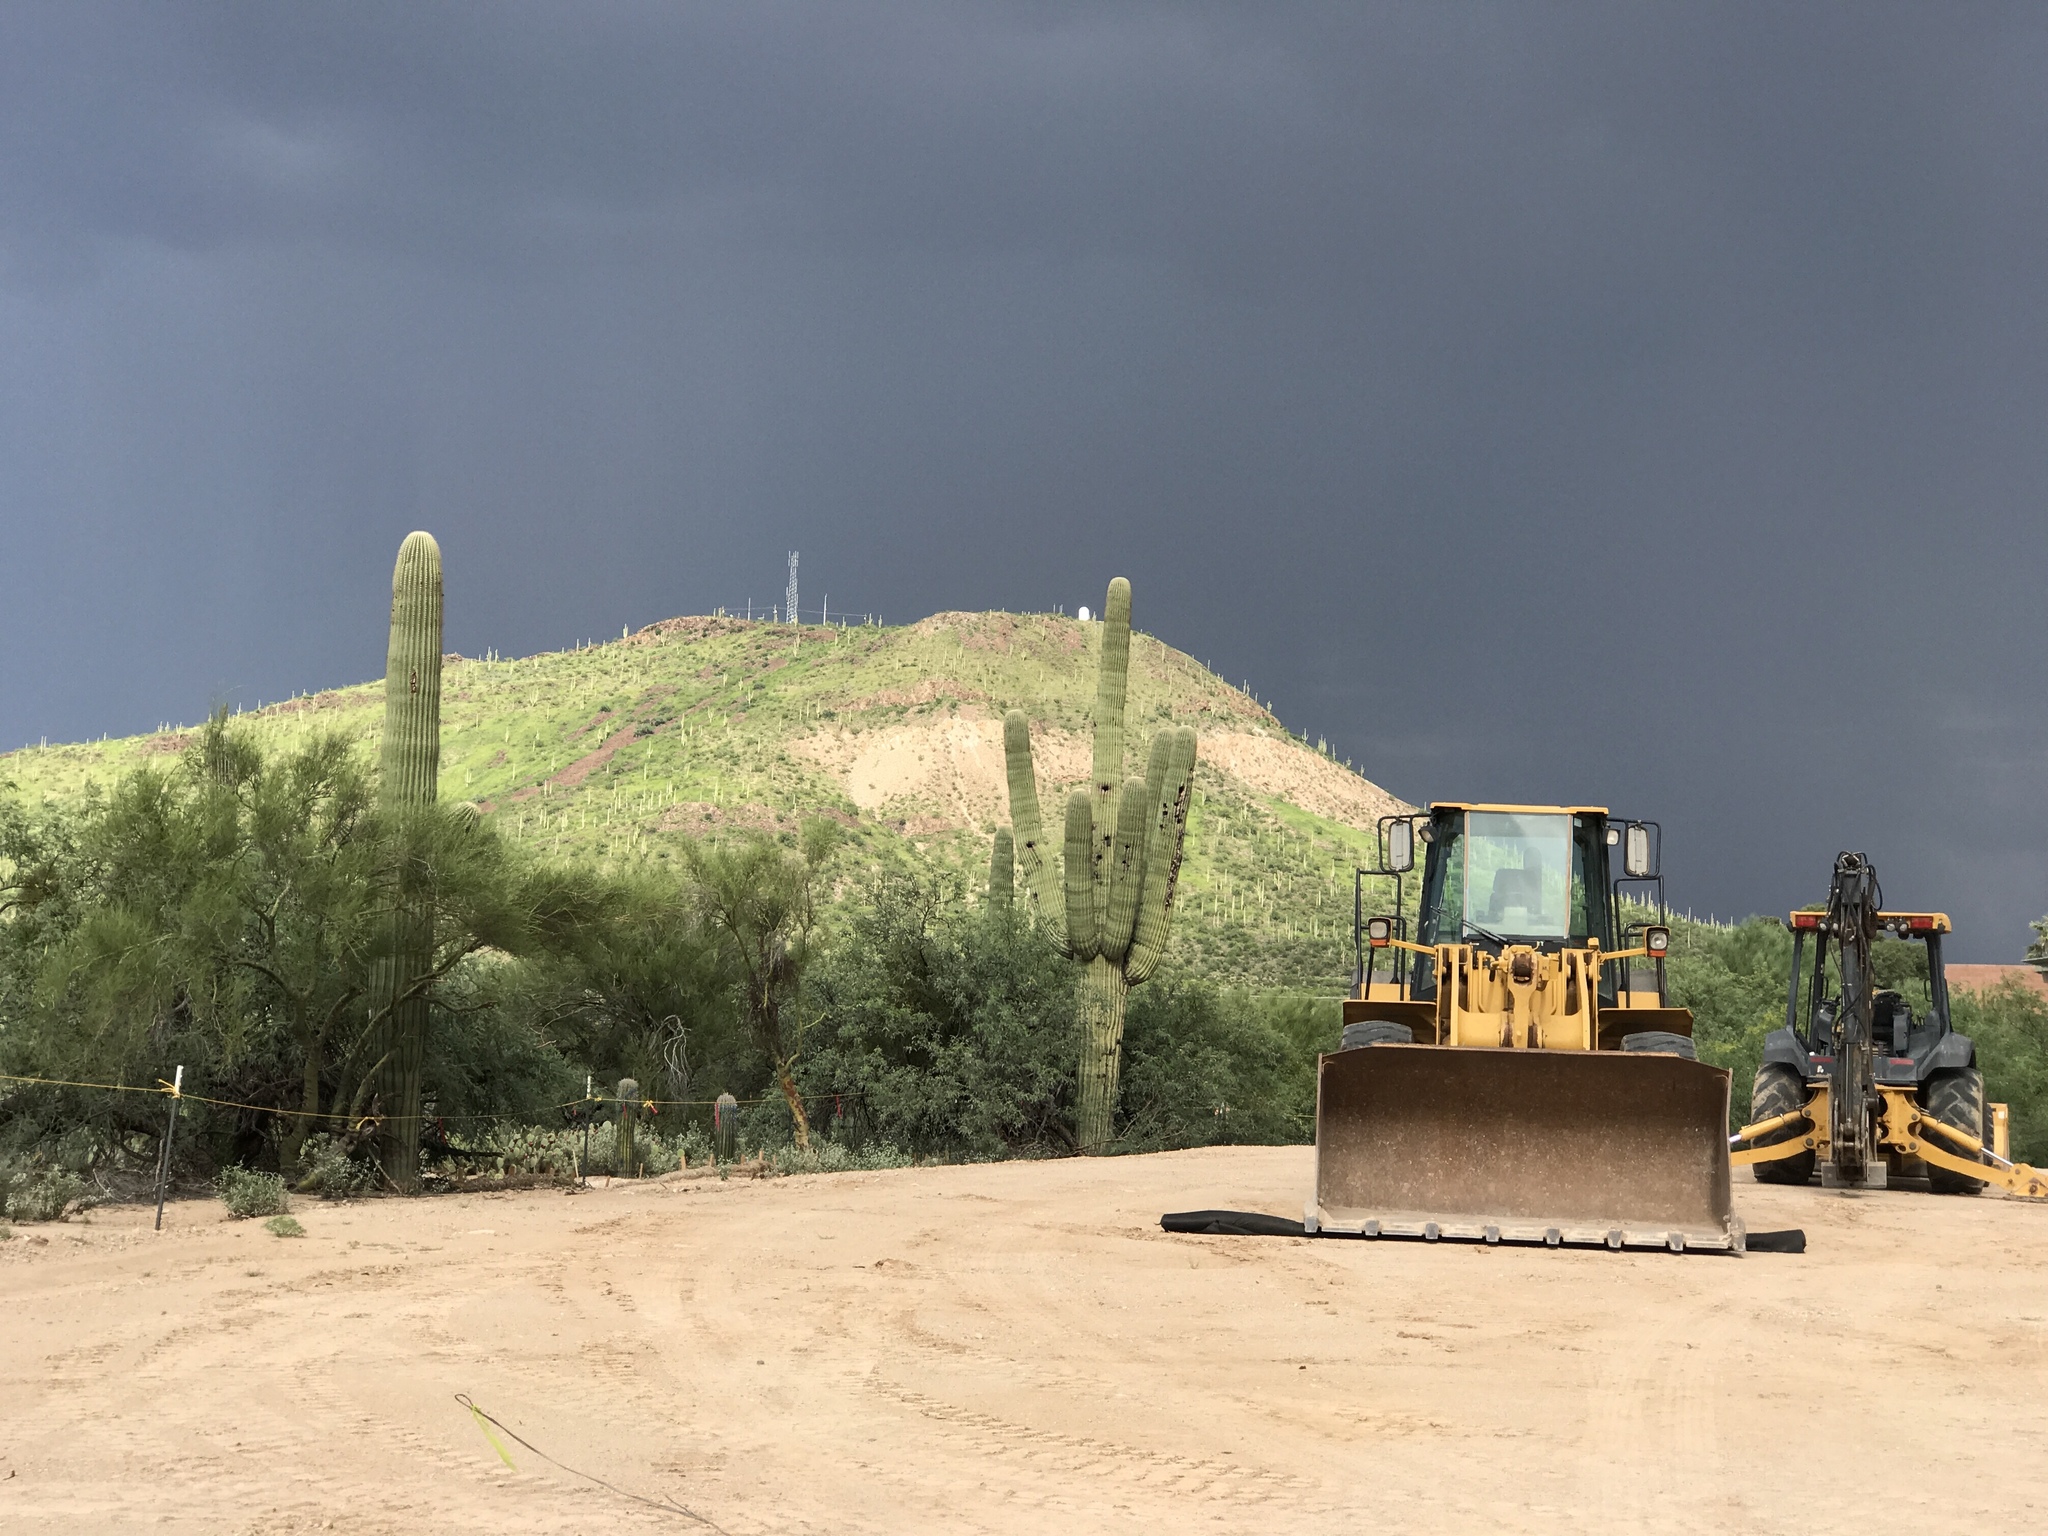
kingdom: Plantae
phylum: Tracheophyta
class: Magnoliopsida
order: Caryophyllales
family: Cactaceae
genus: Carnegiea
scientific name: Carnegiea gigantea
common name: Saguaro
